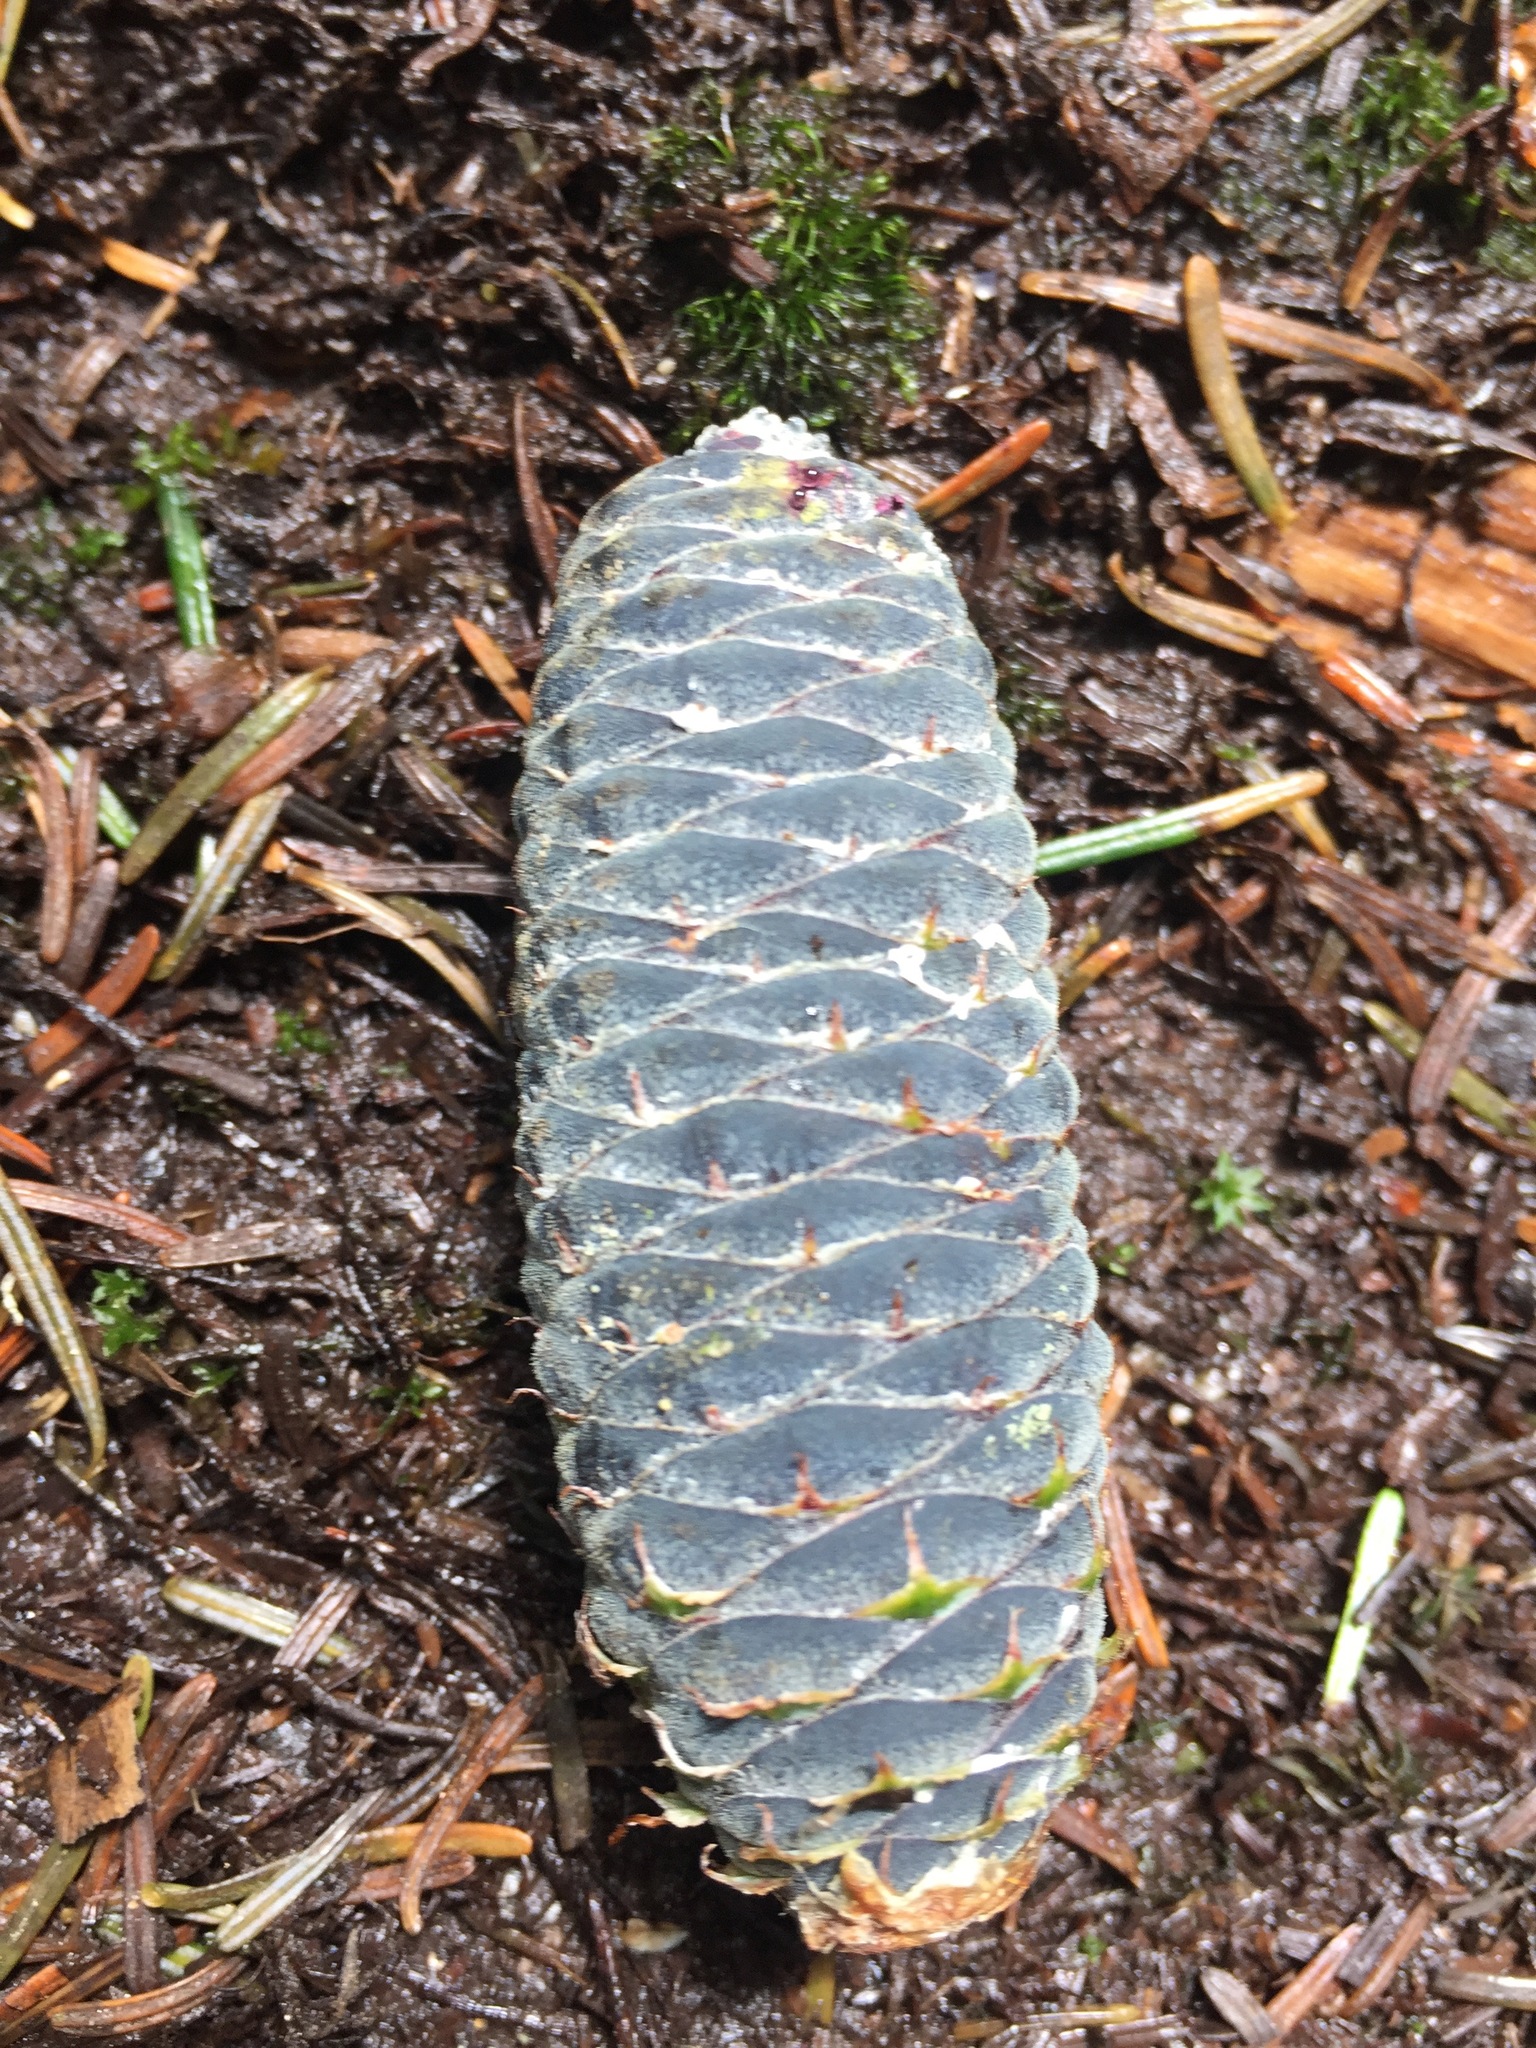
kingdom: Plantae
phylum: Tracheophyta
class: Pinopsida
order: Pinales
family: Pinaceae
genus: Abies
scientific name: Abies balsamea
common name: Balsam fir
